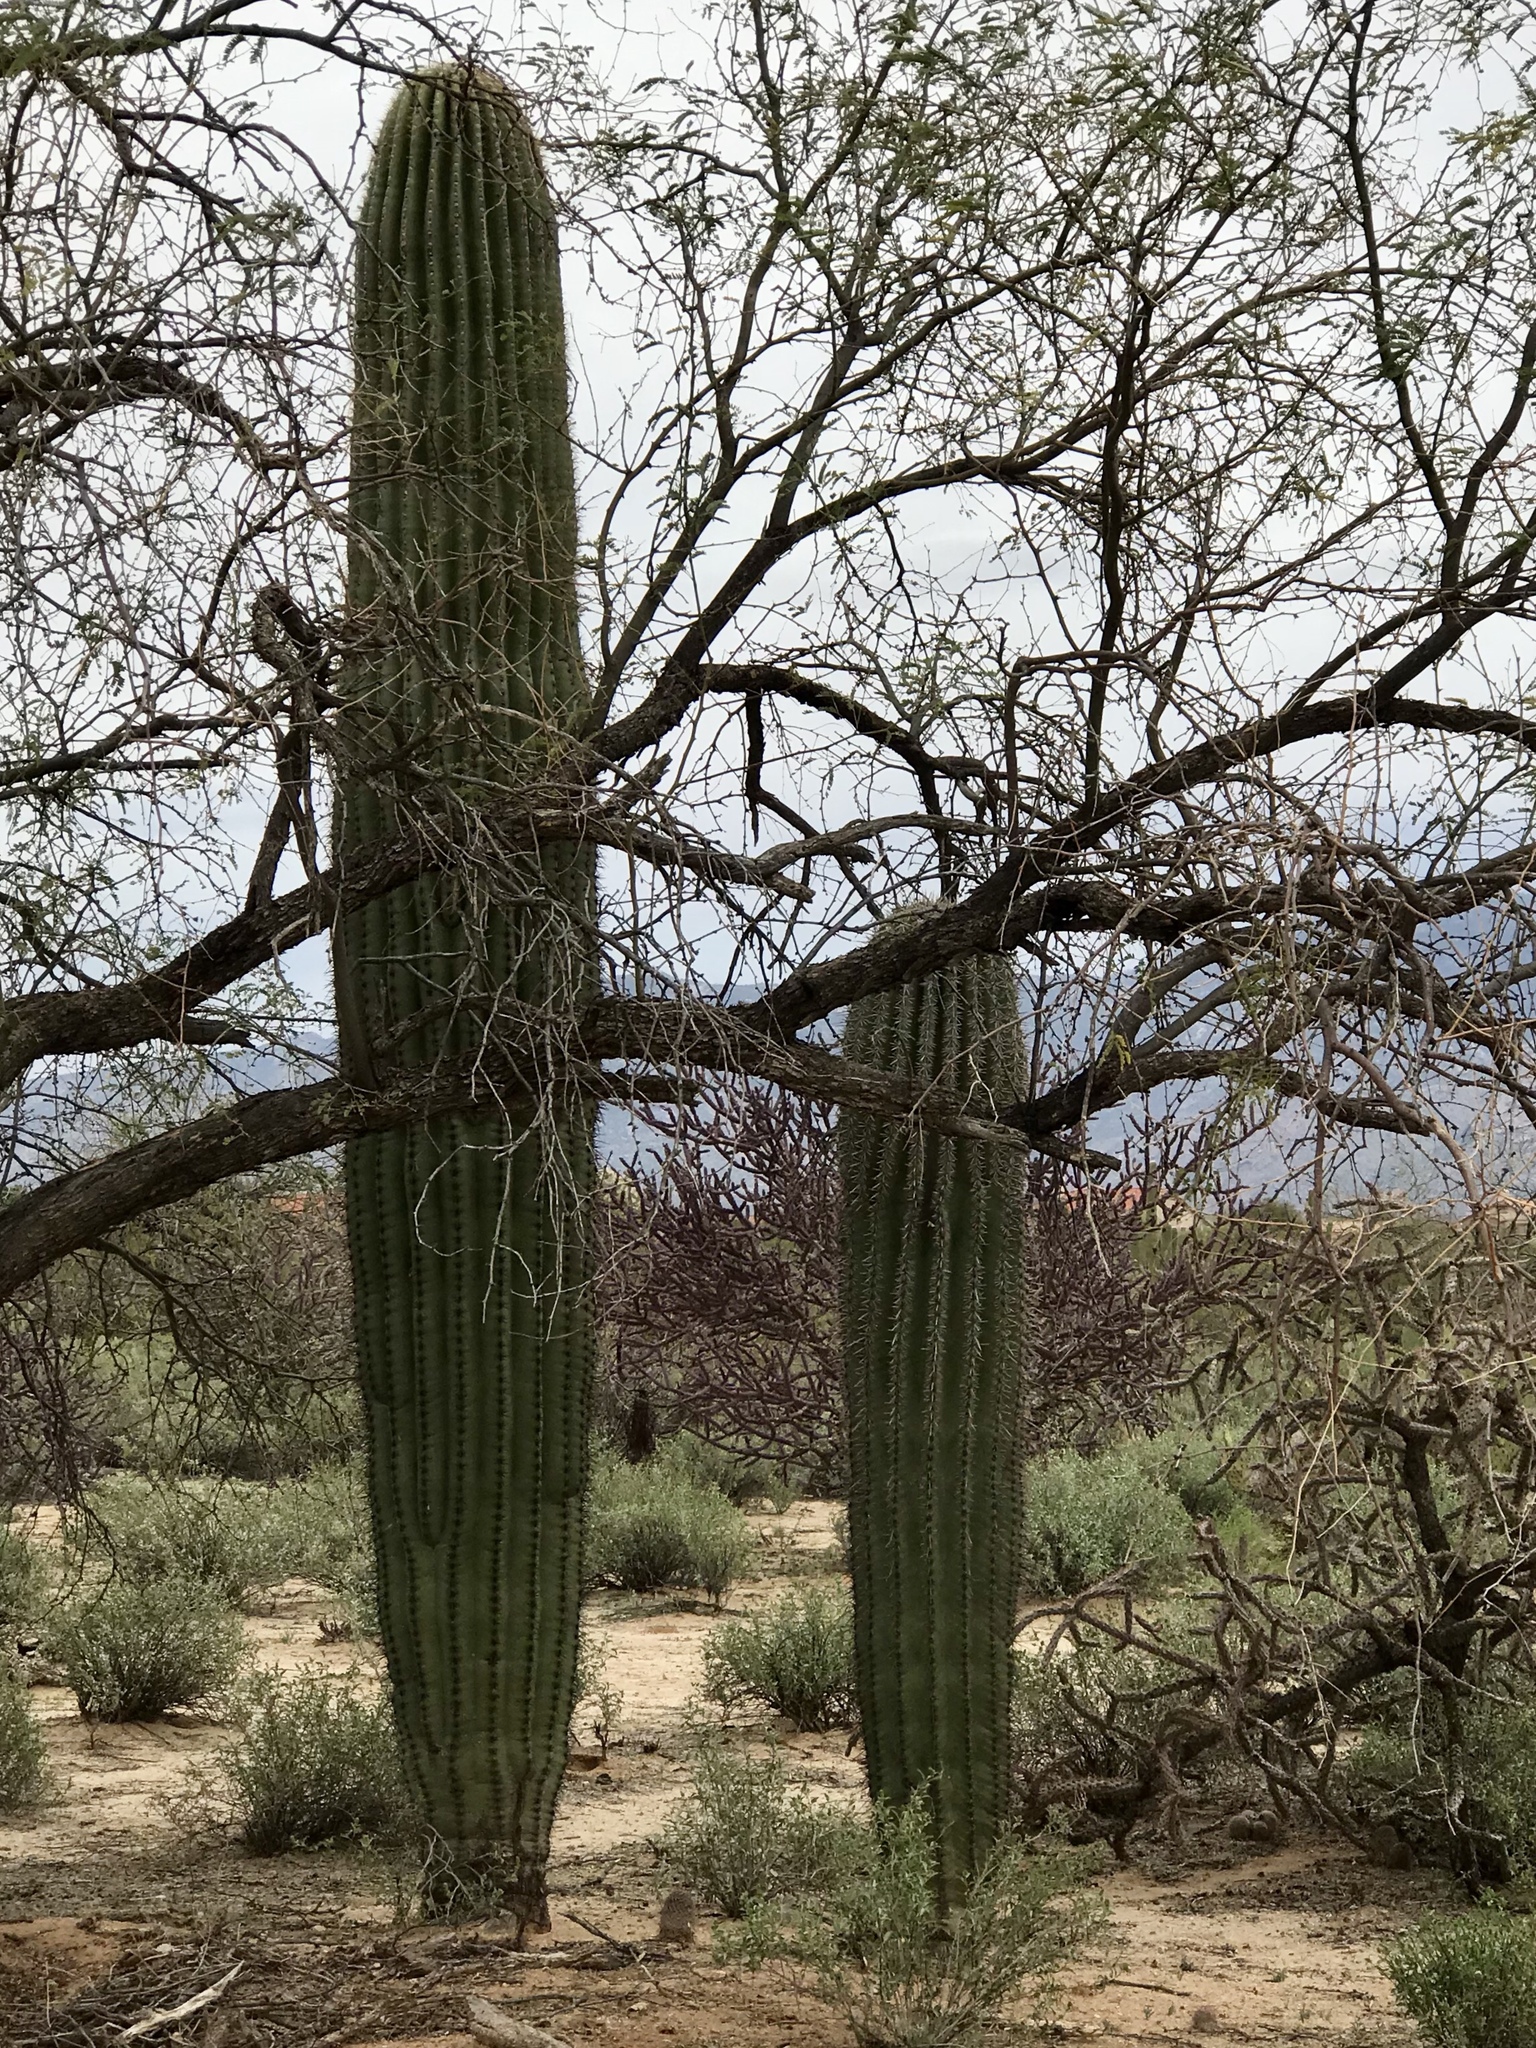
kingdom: Plantae
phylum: Tracheophyta
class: Magnoliopsida
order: Caryophyllales
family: Cactaceae
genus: Carnegiea
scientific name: Carnegiea gigantea
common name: Saguaro
